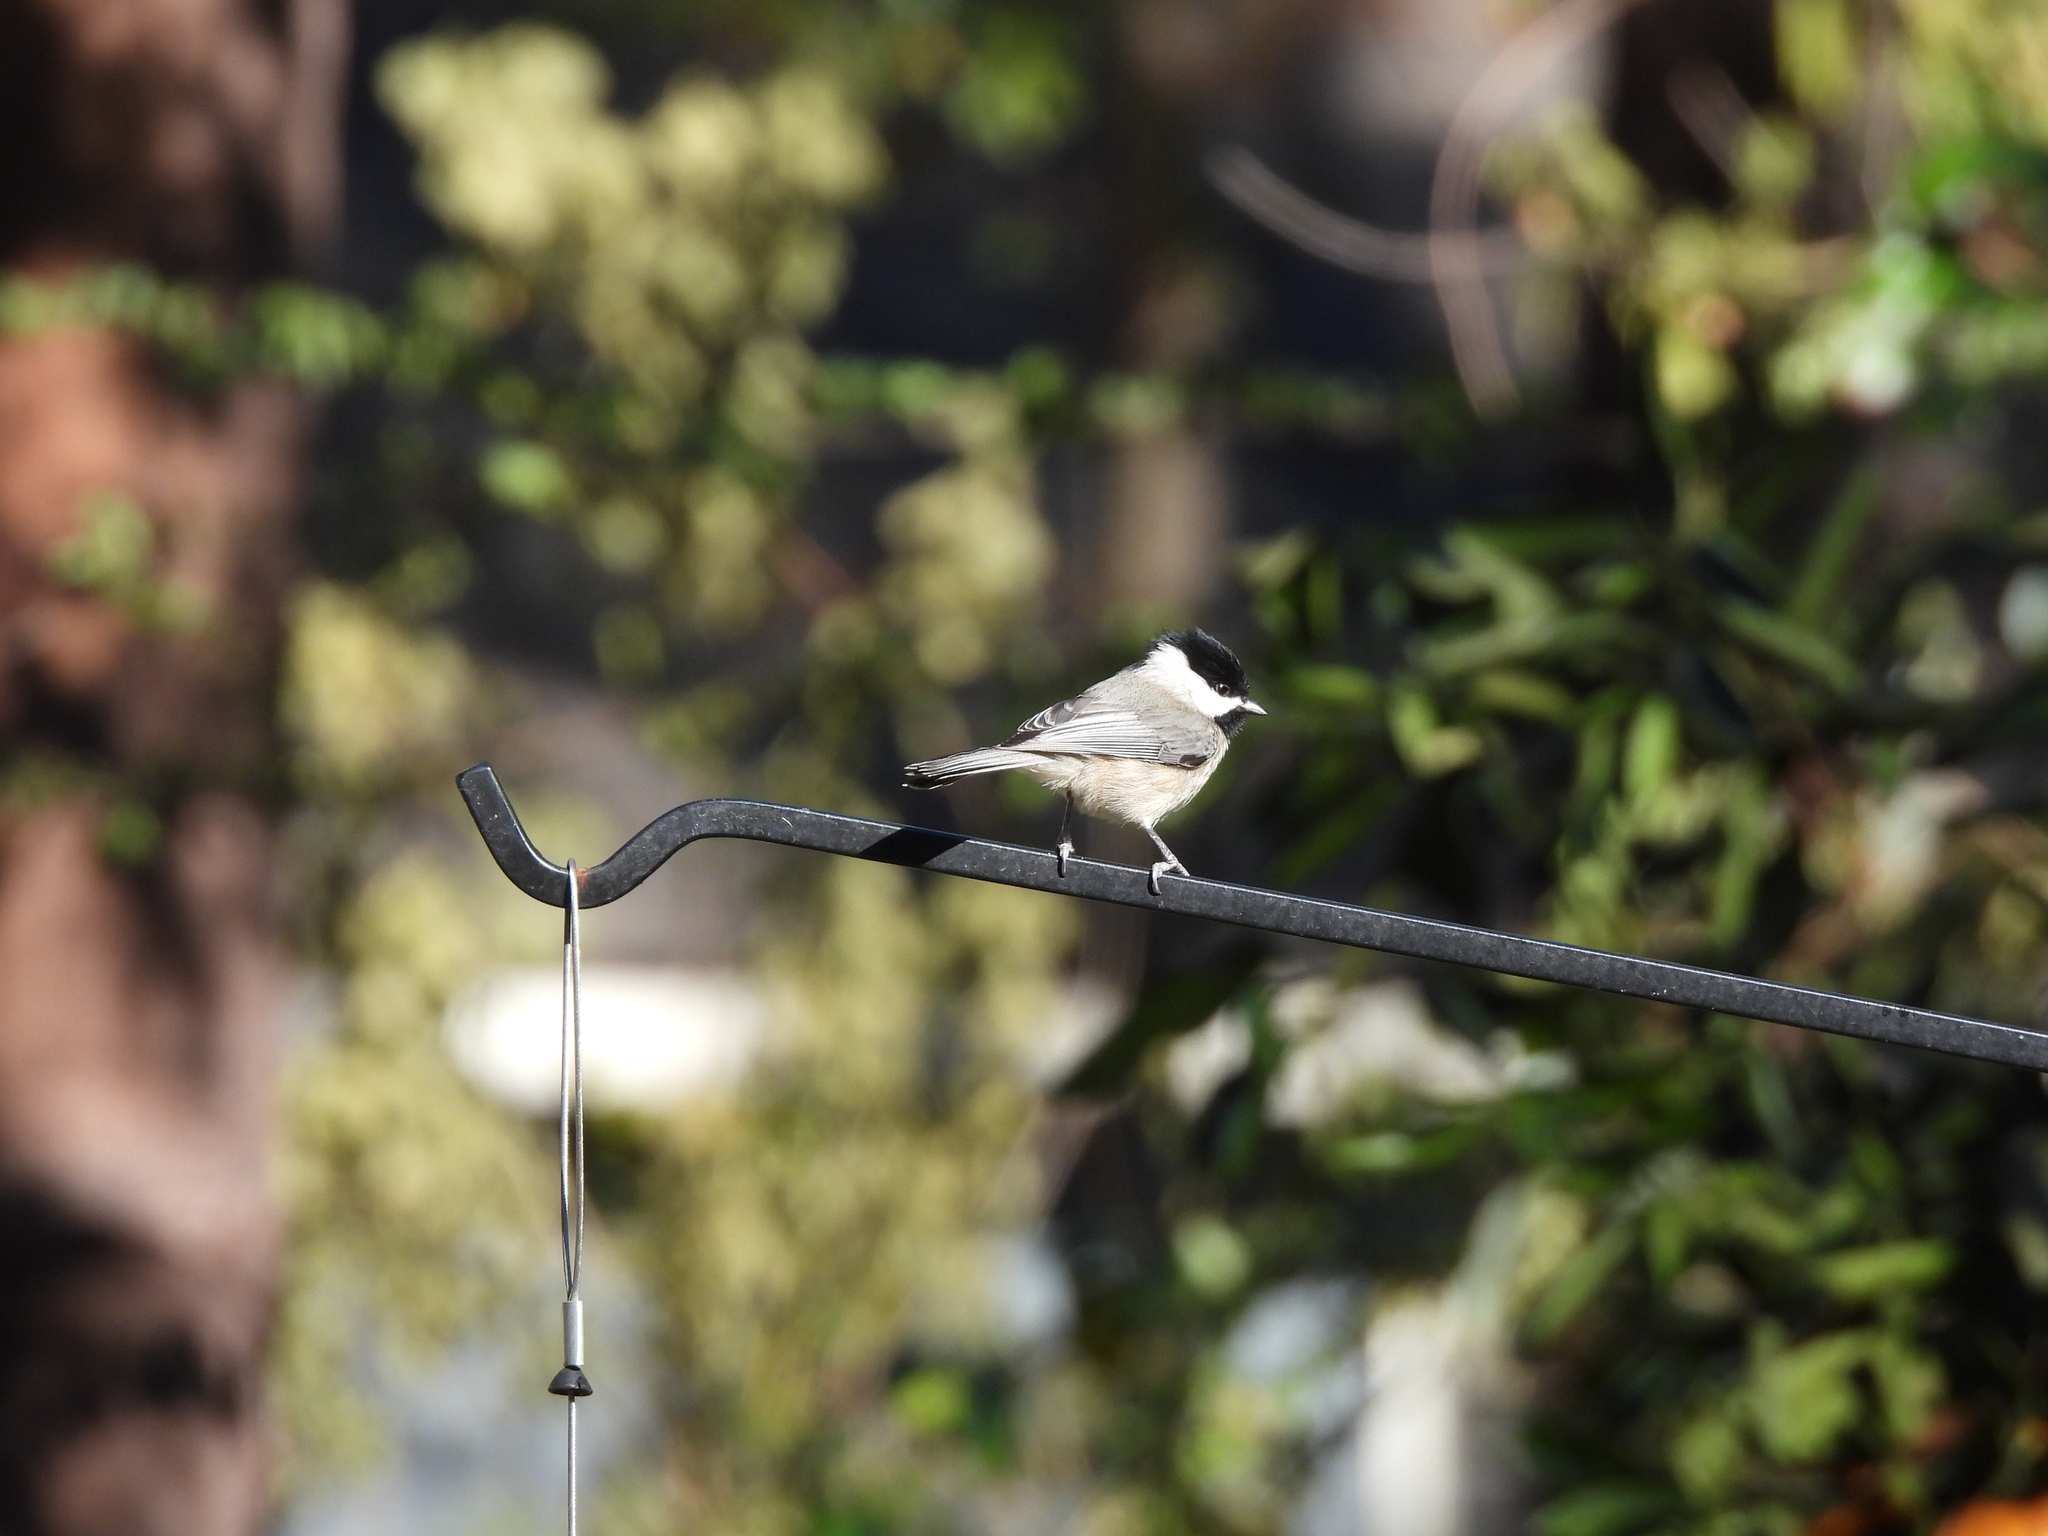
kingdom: Animalia
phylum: Chordata
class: Aves
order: Passeriformes
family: Paridae
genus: Poecile
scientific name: Poecile carolinensis
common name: Carolina chickadee
